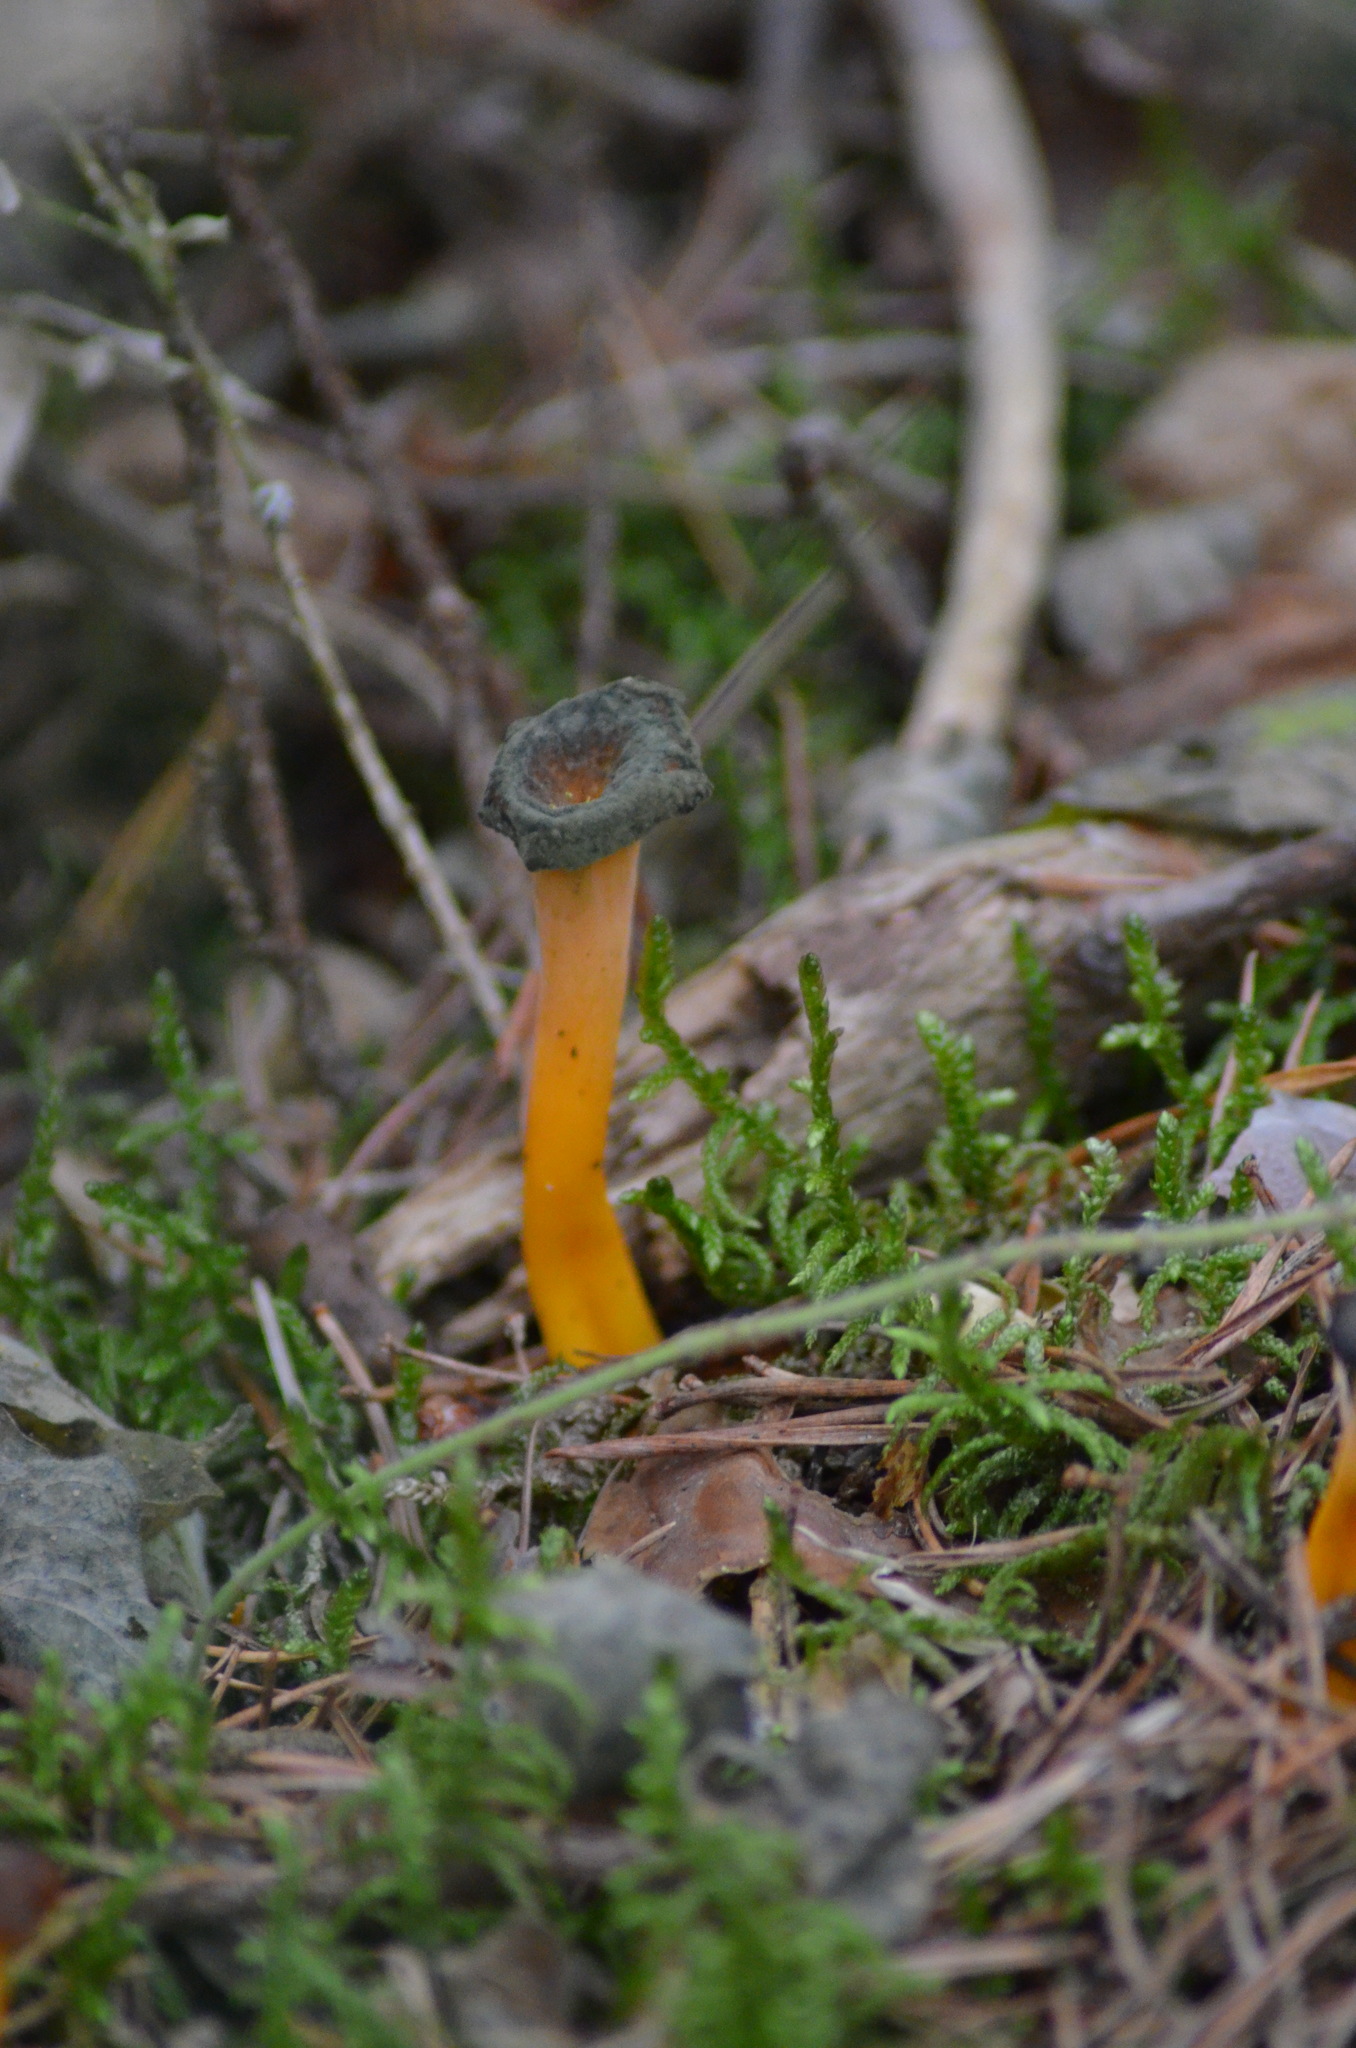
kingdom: Fungi
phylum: Basidiomycota
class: Agaricomycetes
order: Cantharellales
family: Hydnaceae
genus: Craterellus
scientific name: Craterellus lutescens
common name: Golden chanterelle
